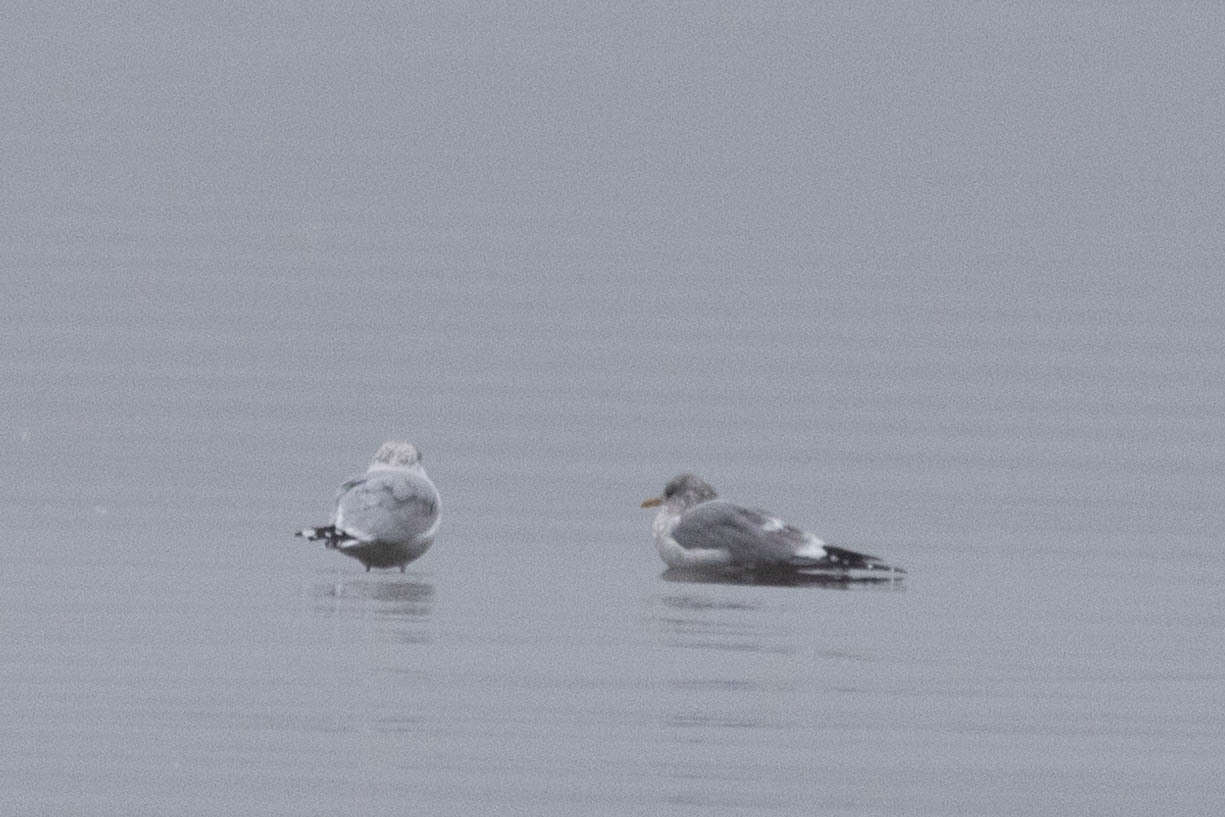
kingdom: Animalia
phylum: Chordata
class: Aves
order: Charadriiformes
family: Laridae
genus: Larus
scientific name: Larus brachyrhynchus
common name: Short-billed gull
